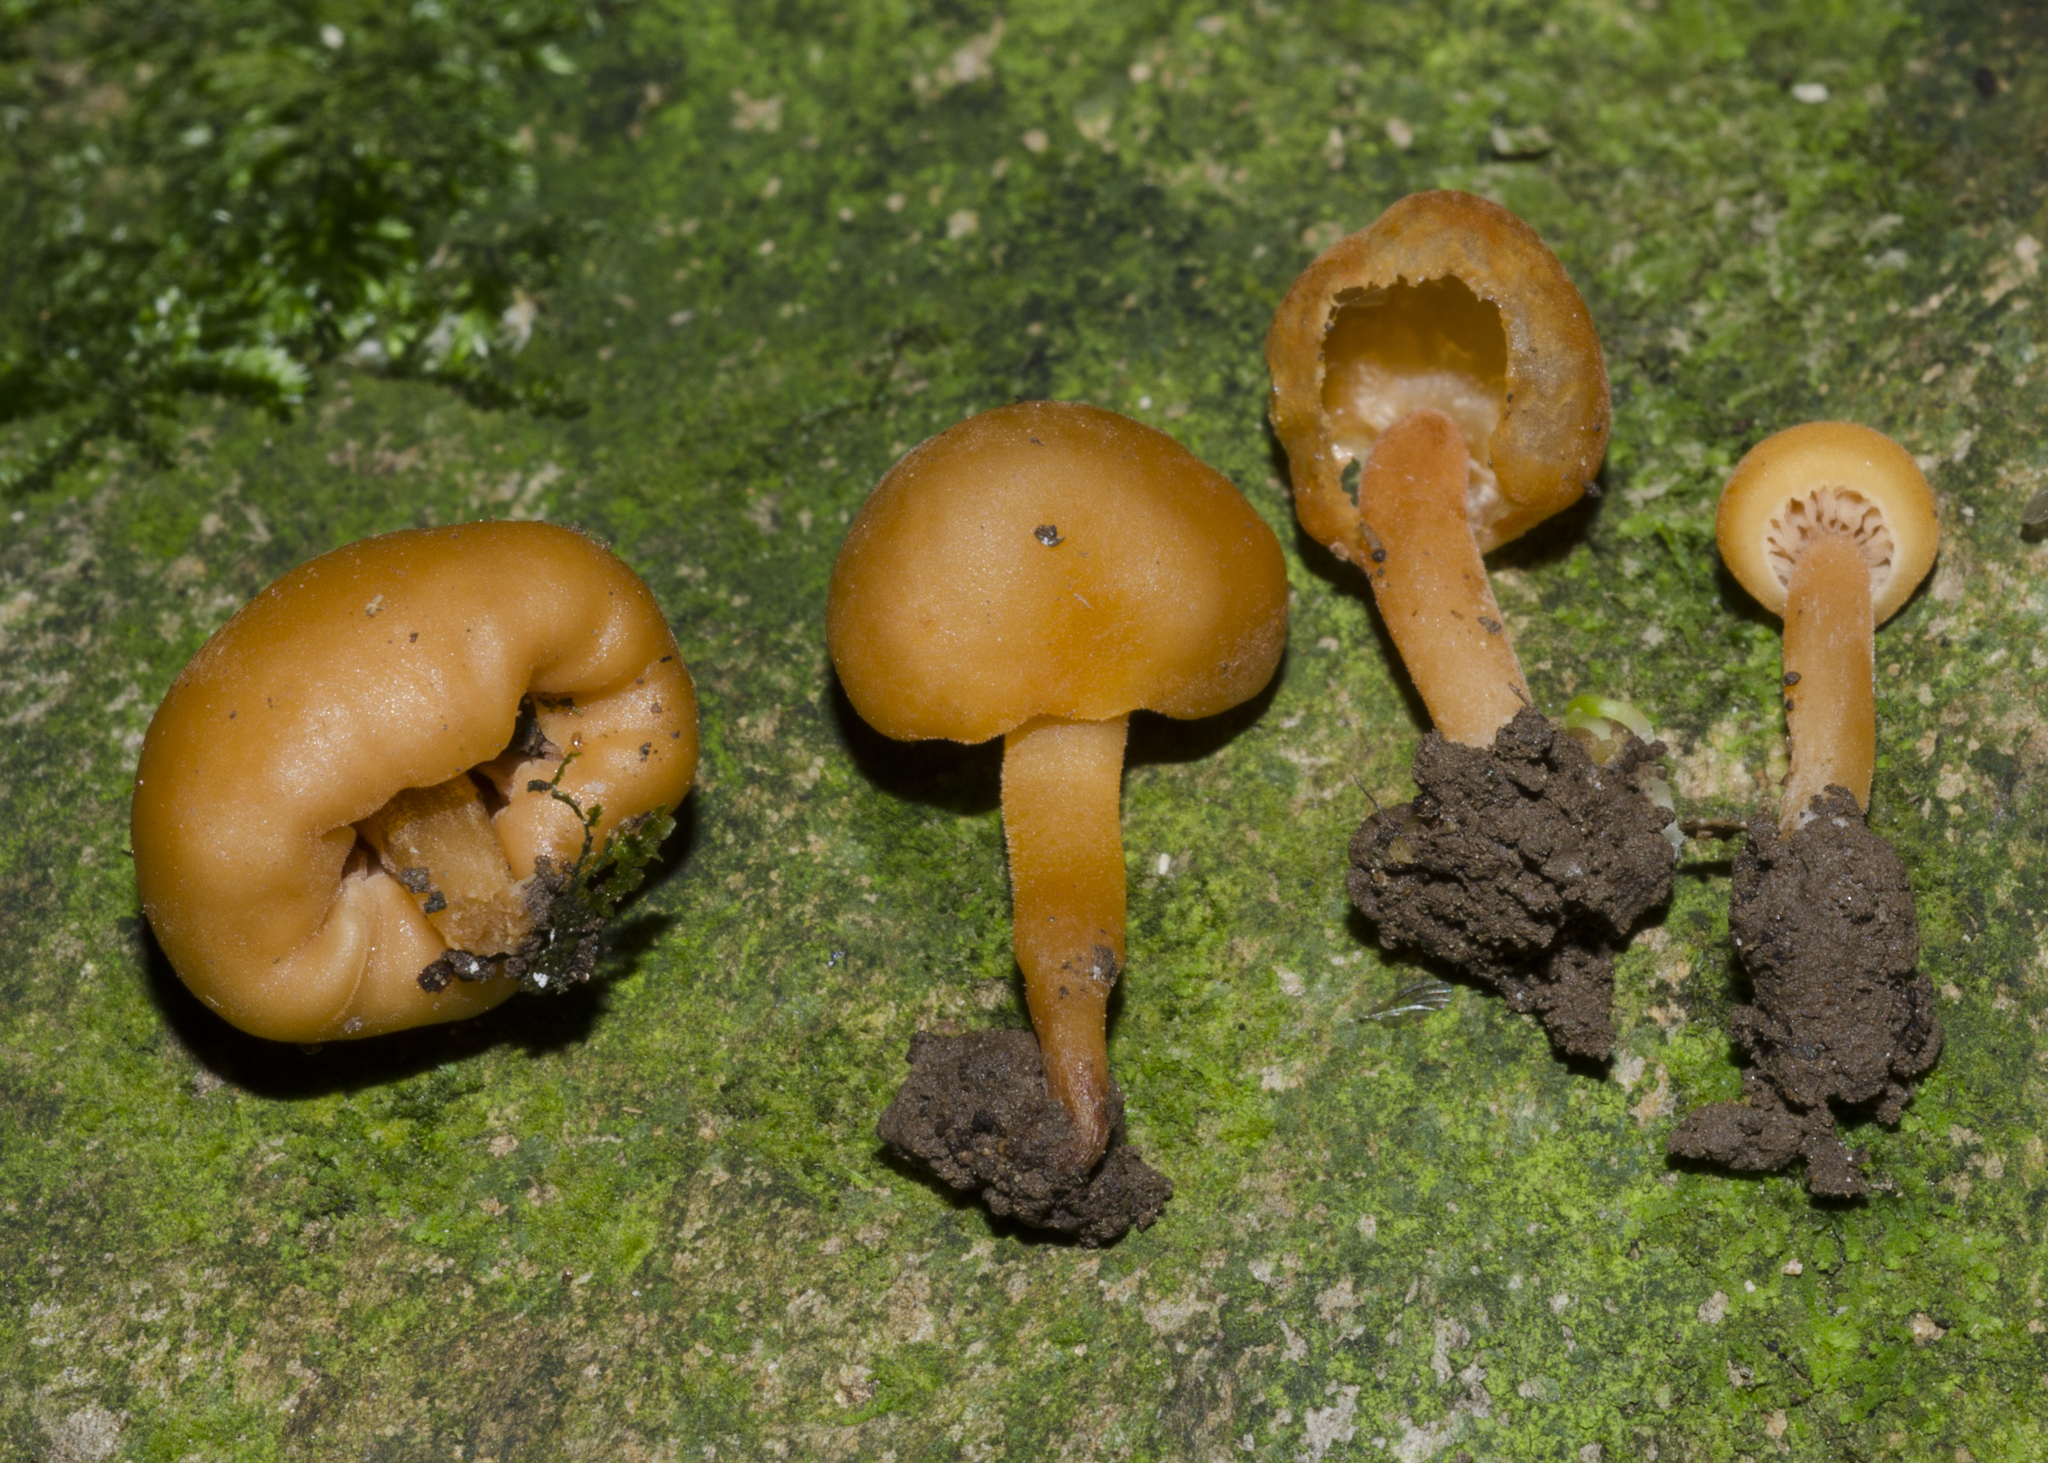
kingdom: Fungi
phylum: Basidiomycota
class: Agaricomycetes
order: Agaricales
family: Macrocystidiaceae
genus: Macrocystidia
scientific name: Macrocystidia reducta
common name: The fishy pouch
